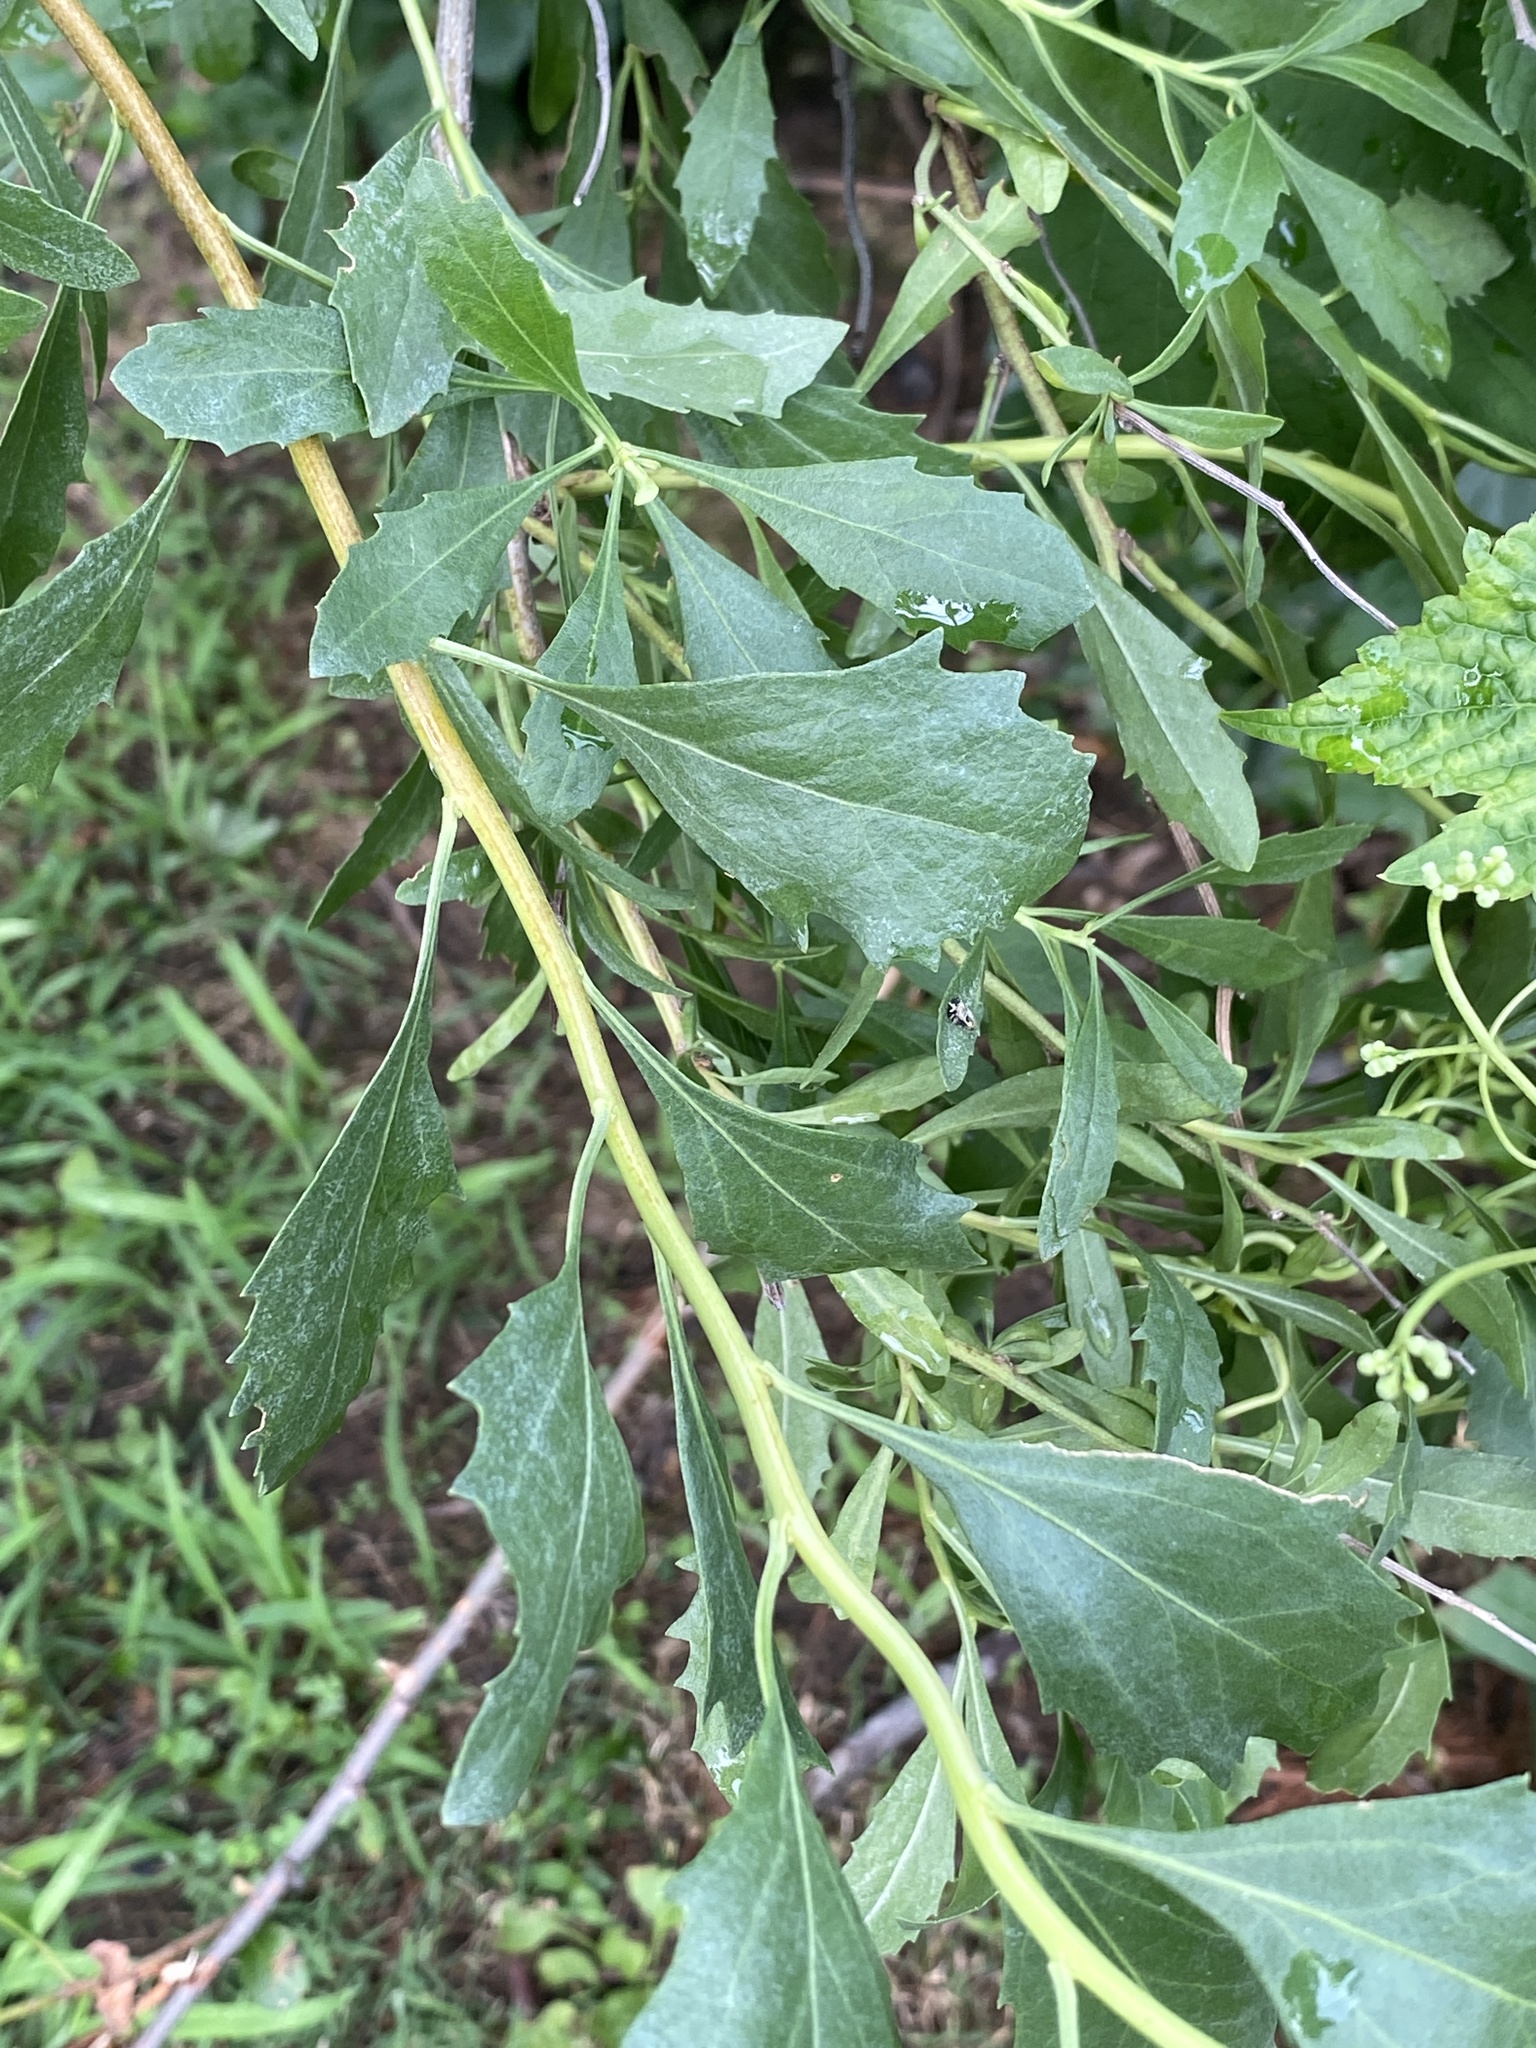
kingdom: Plantae
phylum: Tracheophyta
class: Magnoliopsida
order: Asterales
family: Asteraceae
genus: Baccharis
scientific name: Baccharis halimifolia
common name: Eastern baccharis
